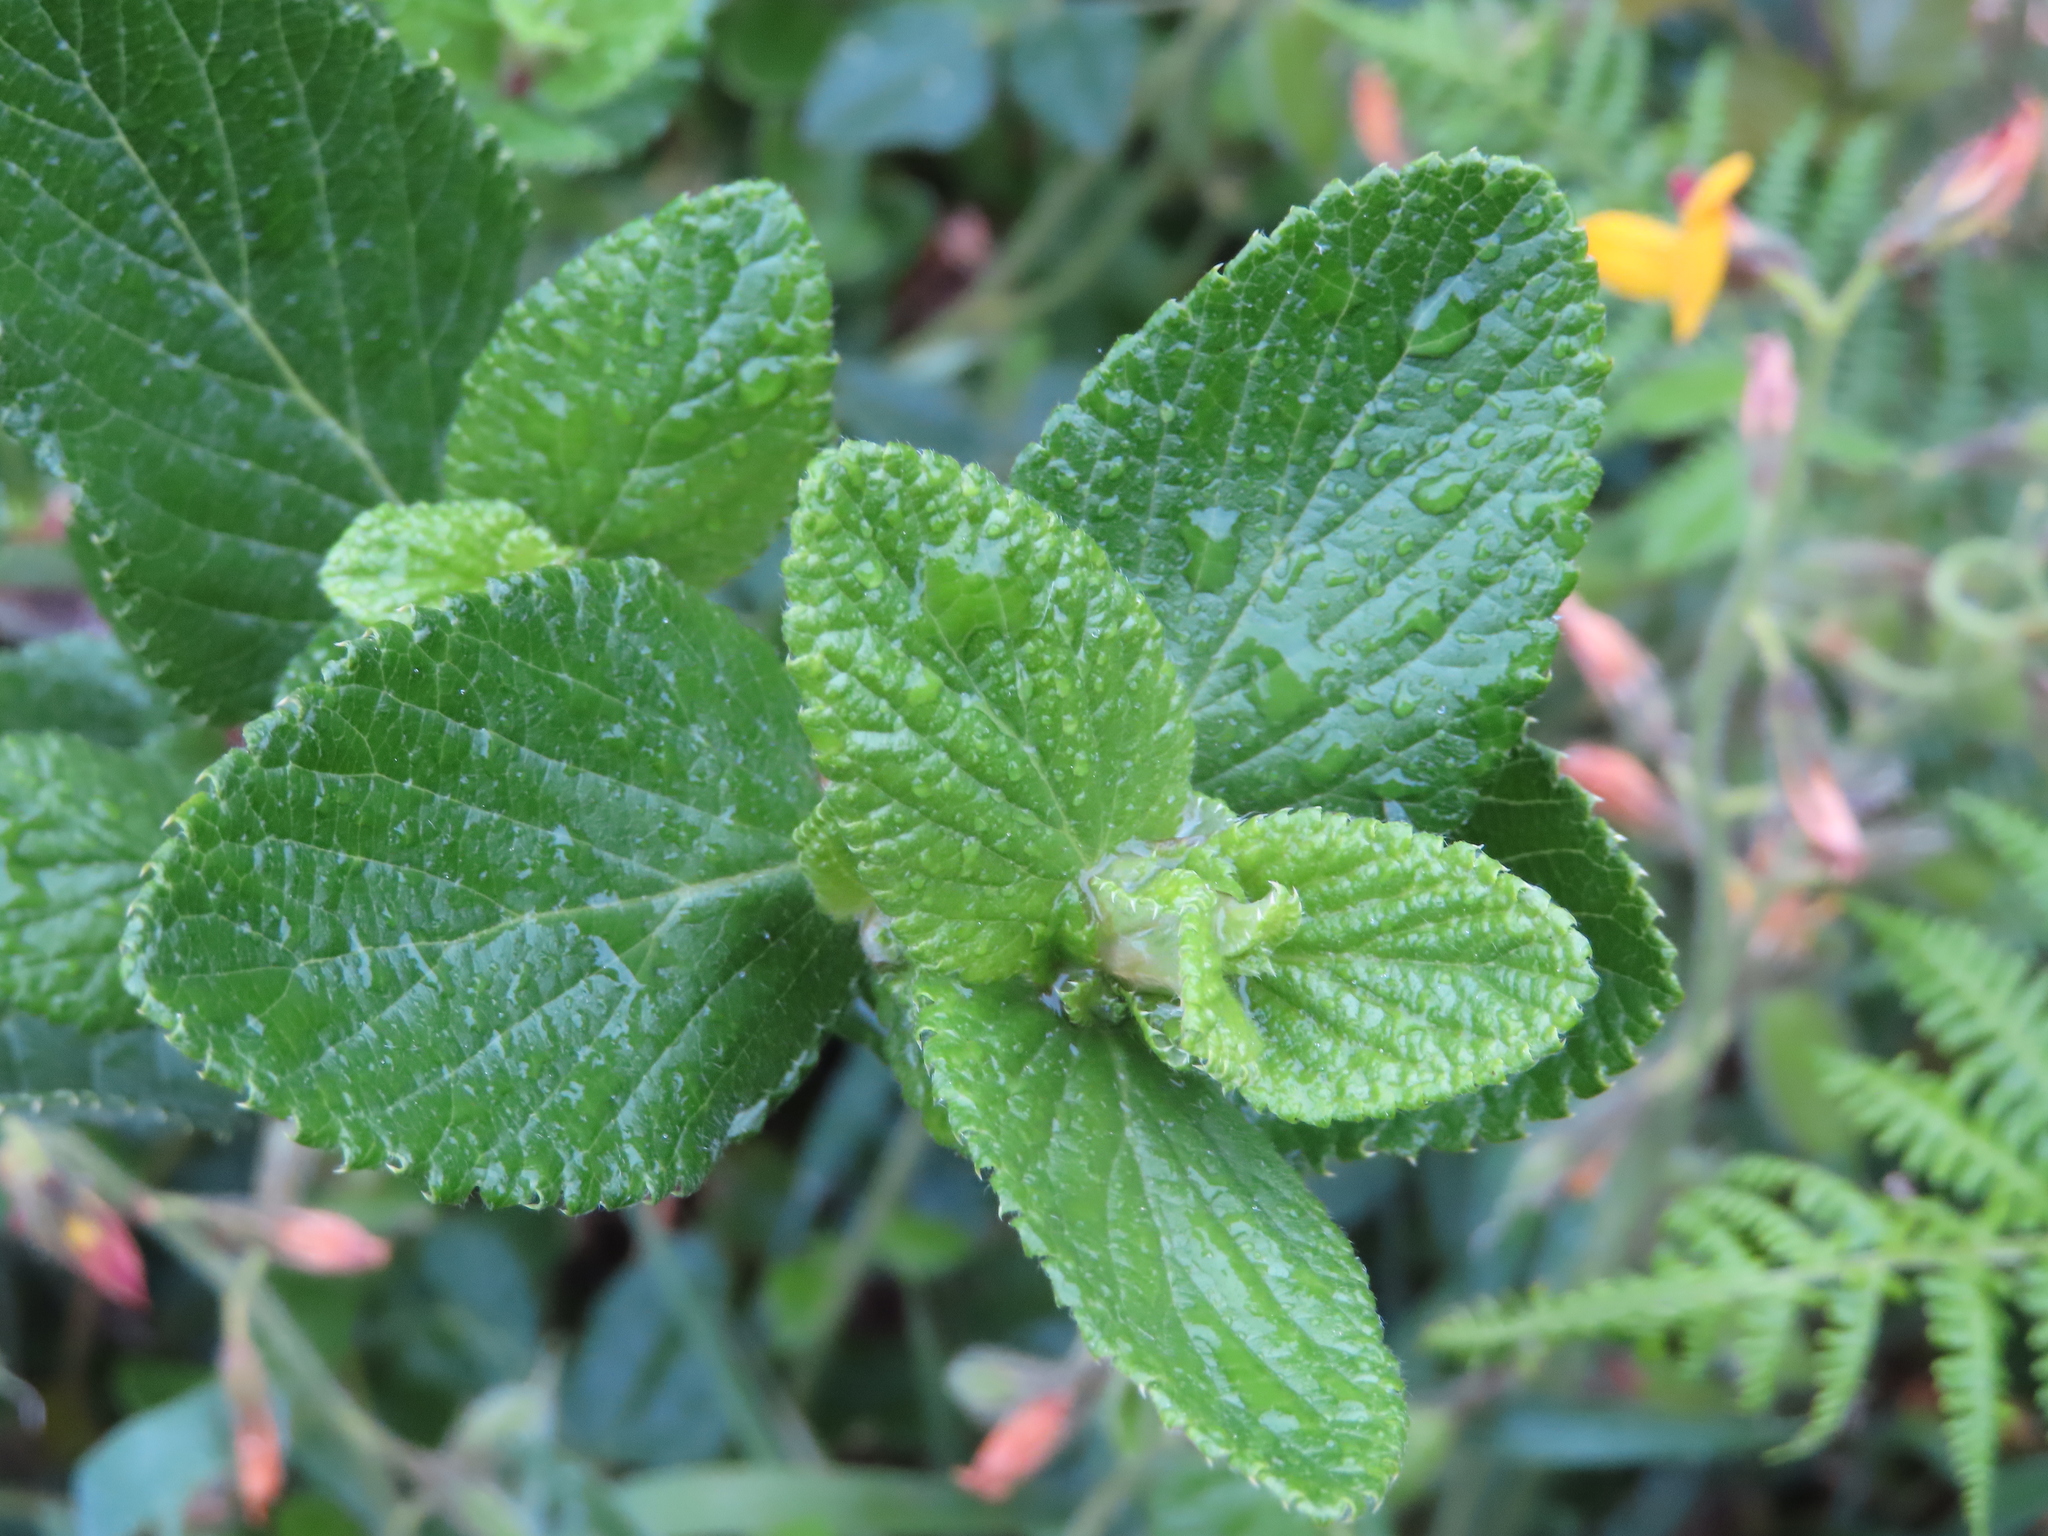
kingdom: Plantae
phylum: Tracheophyta
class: Magnoliopsida
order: Rosales
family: Rosaceae
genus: Cliffortia
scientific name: Cliffortia odorata
